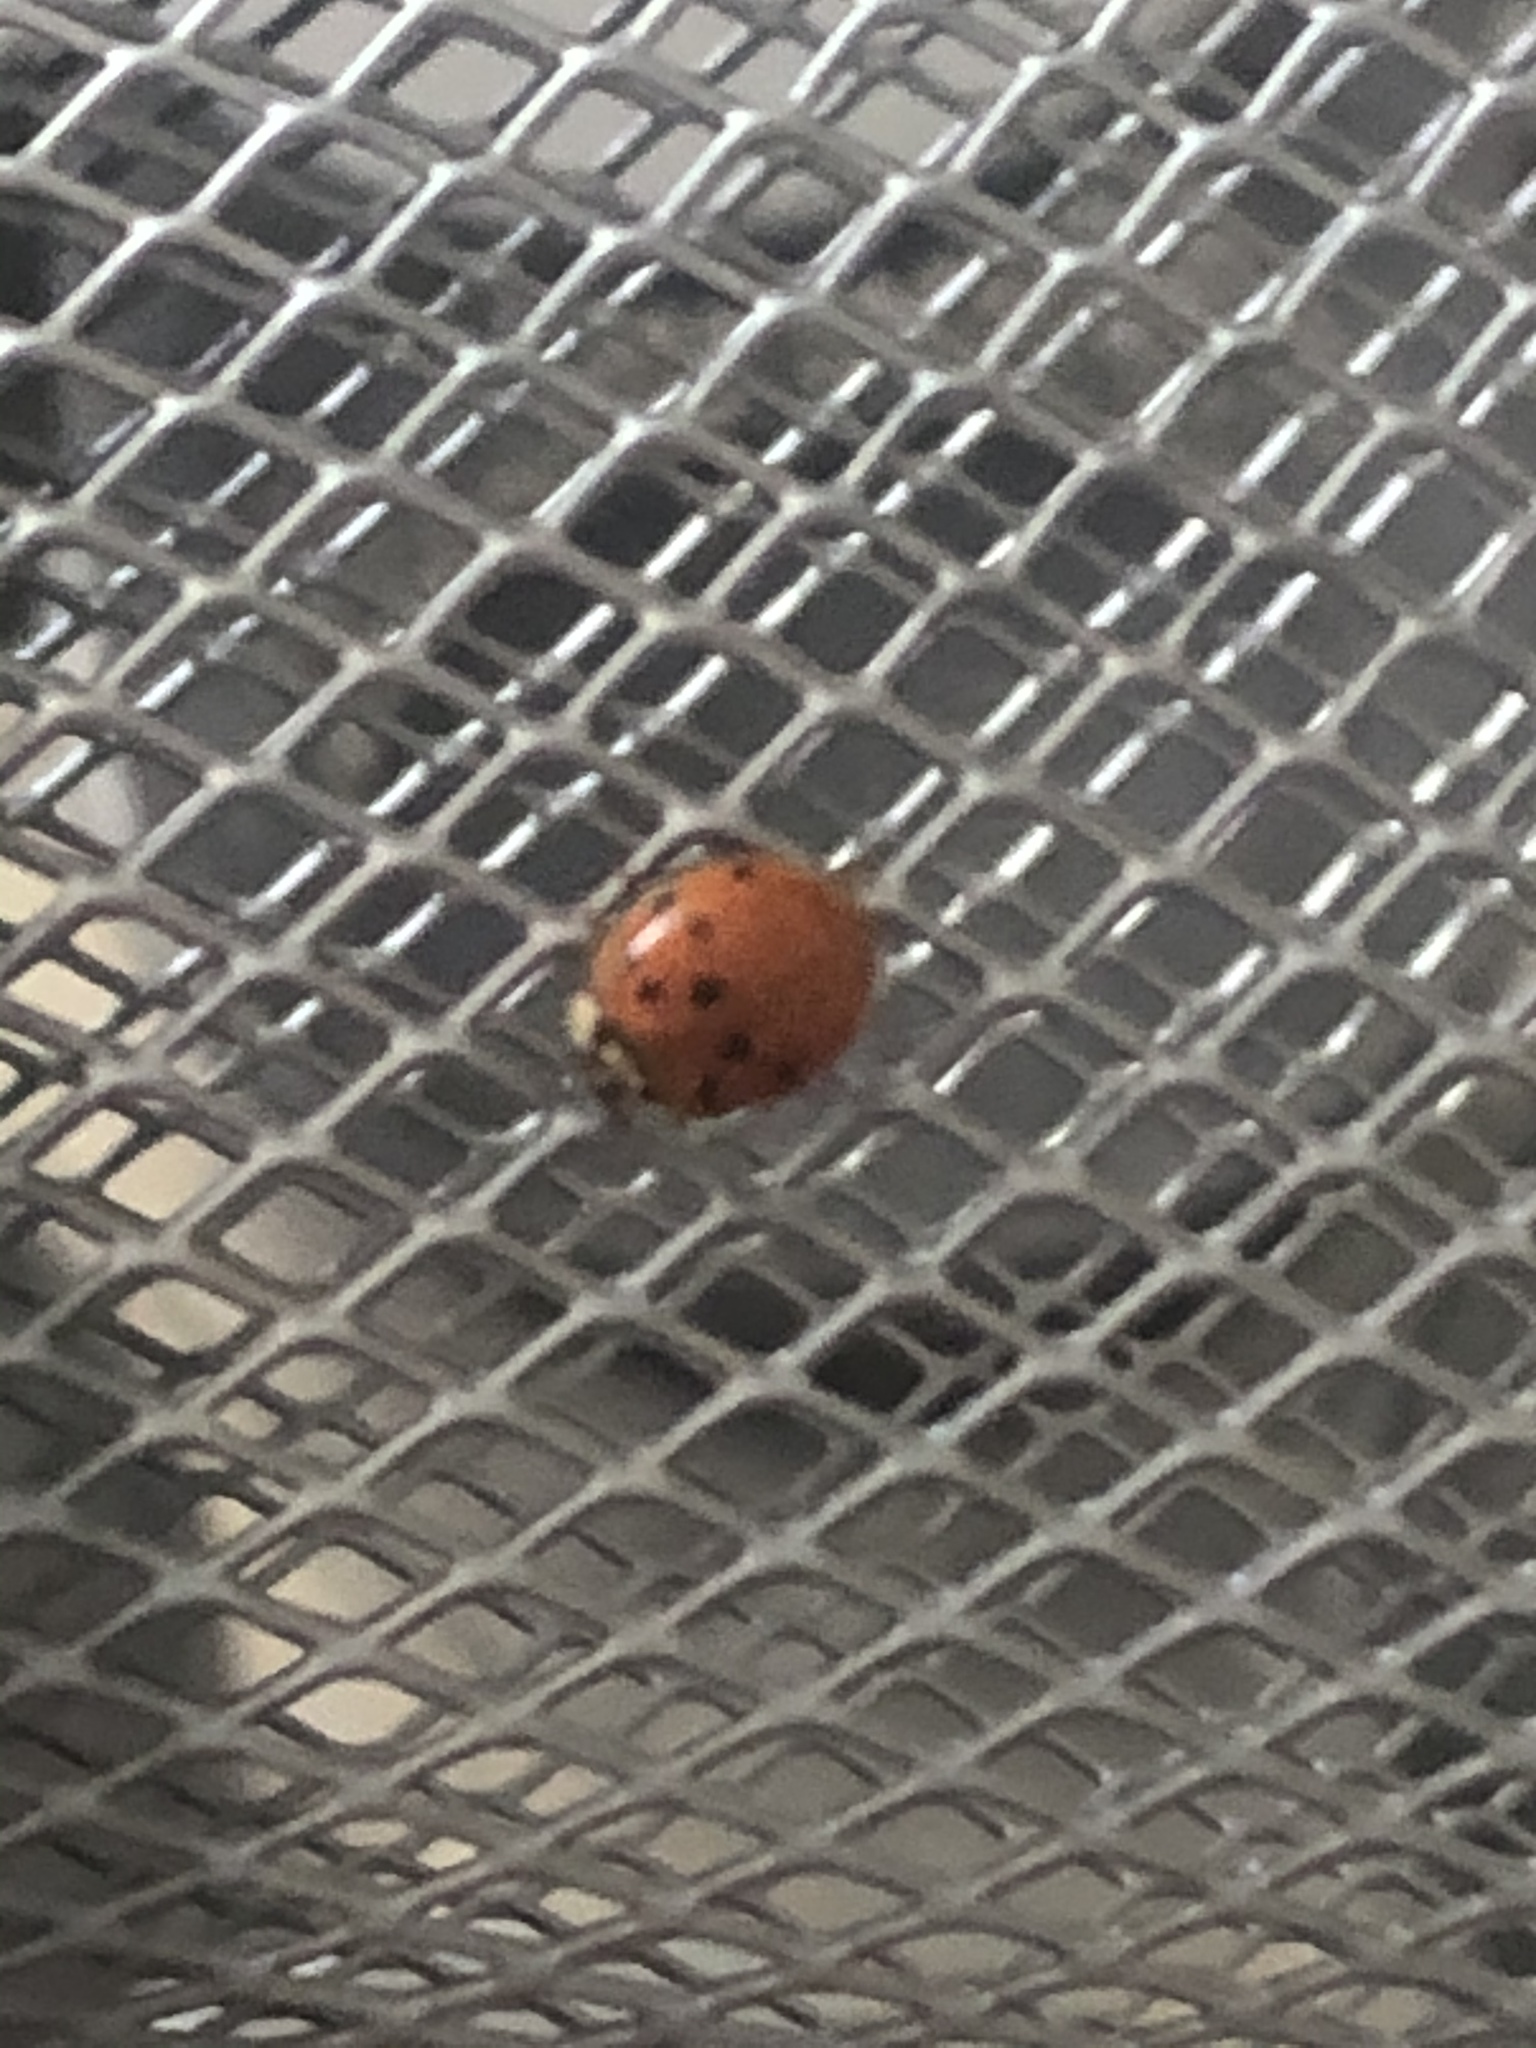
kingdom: Animalia
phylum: Arthropoda
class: Insecta
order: Coleoptera
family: Coccinellidae
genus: Harmonia
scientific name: Harmonia axyridis
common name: Harlequin ladybird
